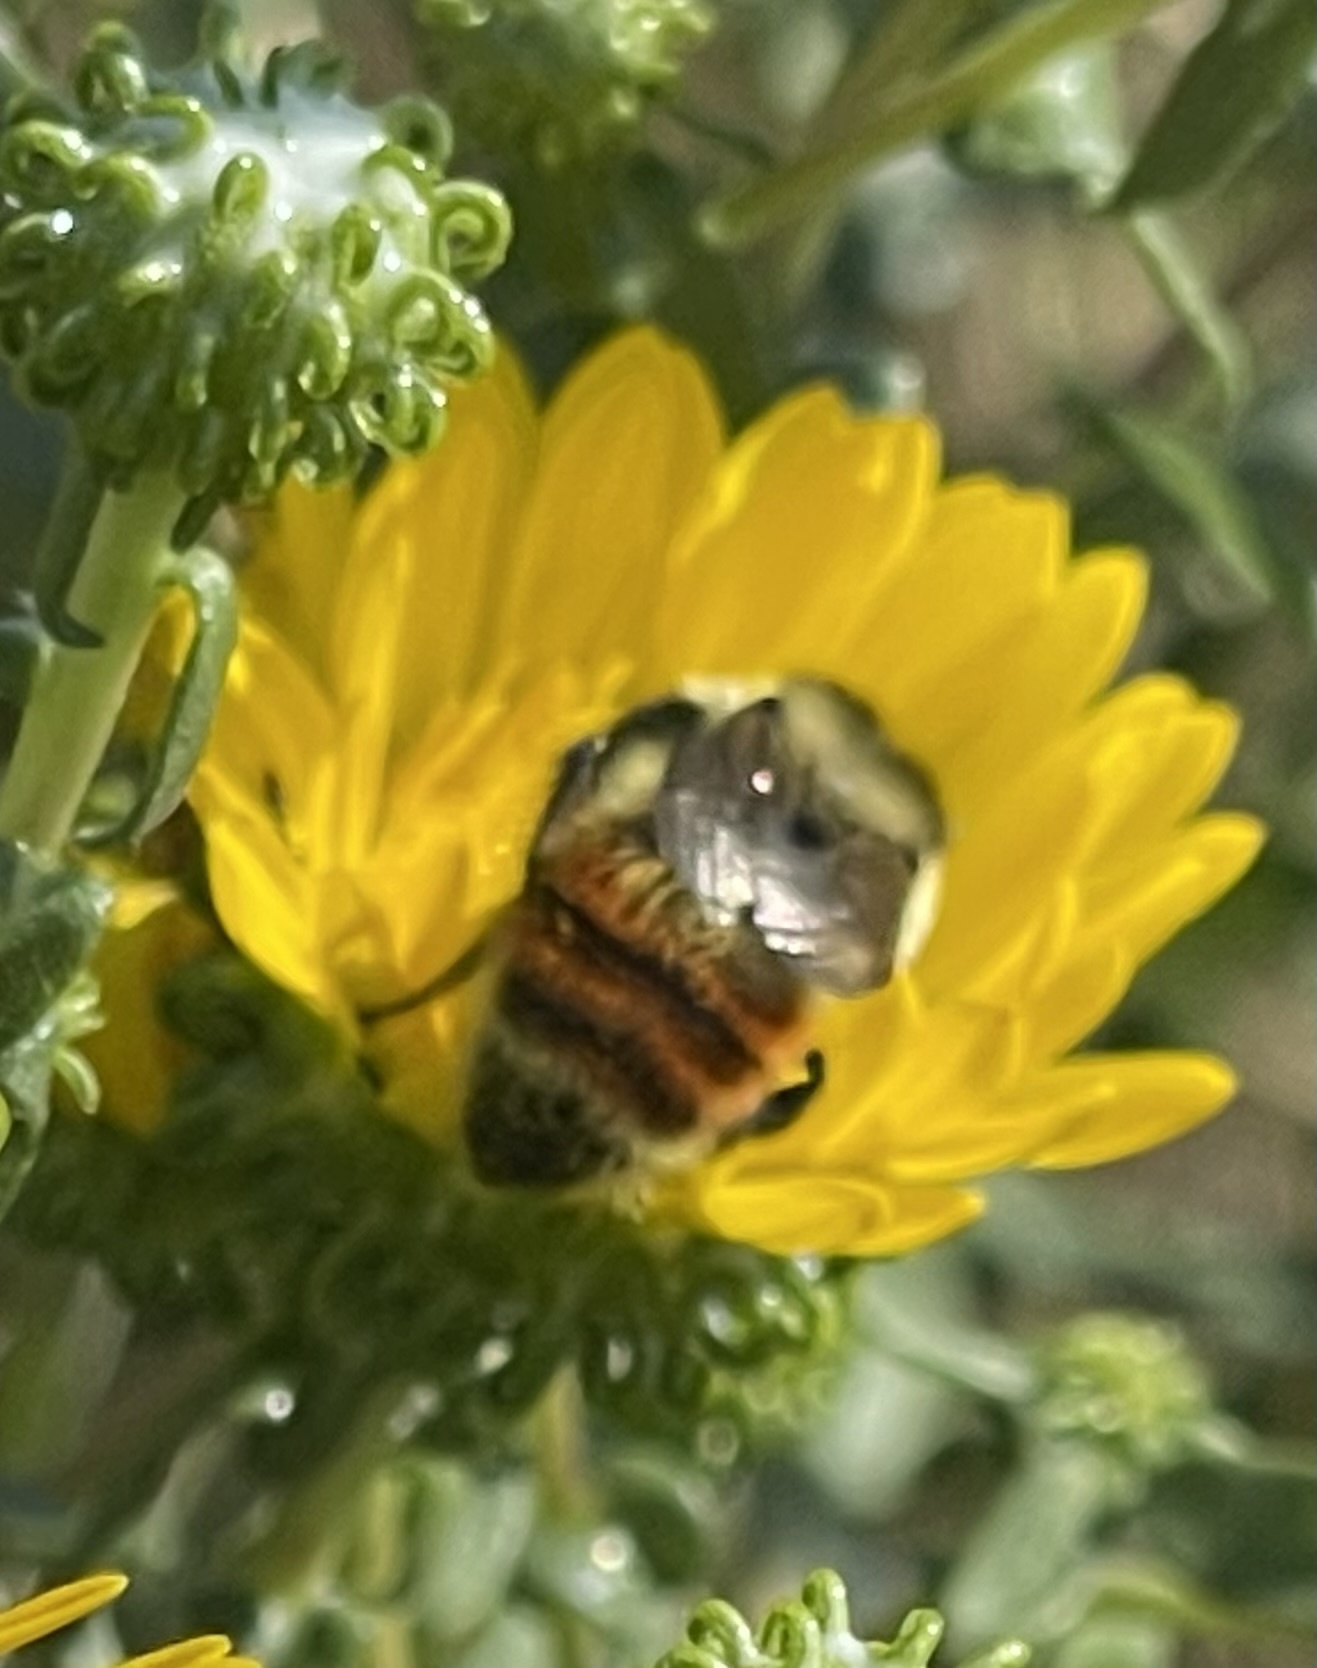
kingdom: Animalia
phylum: Arthropoda
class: Insecta
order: Hymenoptera
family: Apidae
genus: Bombus
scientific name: Bombus huntii
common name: Hunt bumble bee
